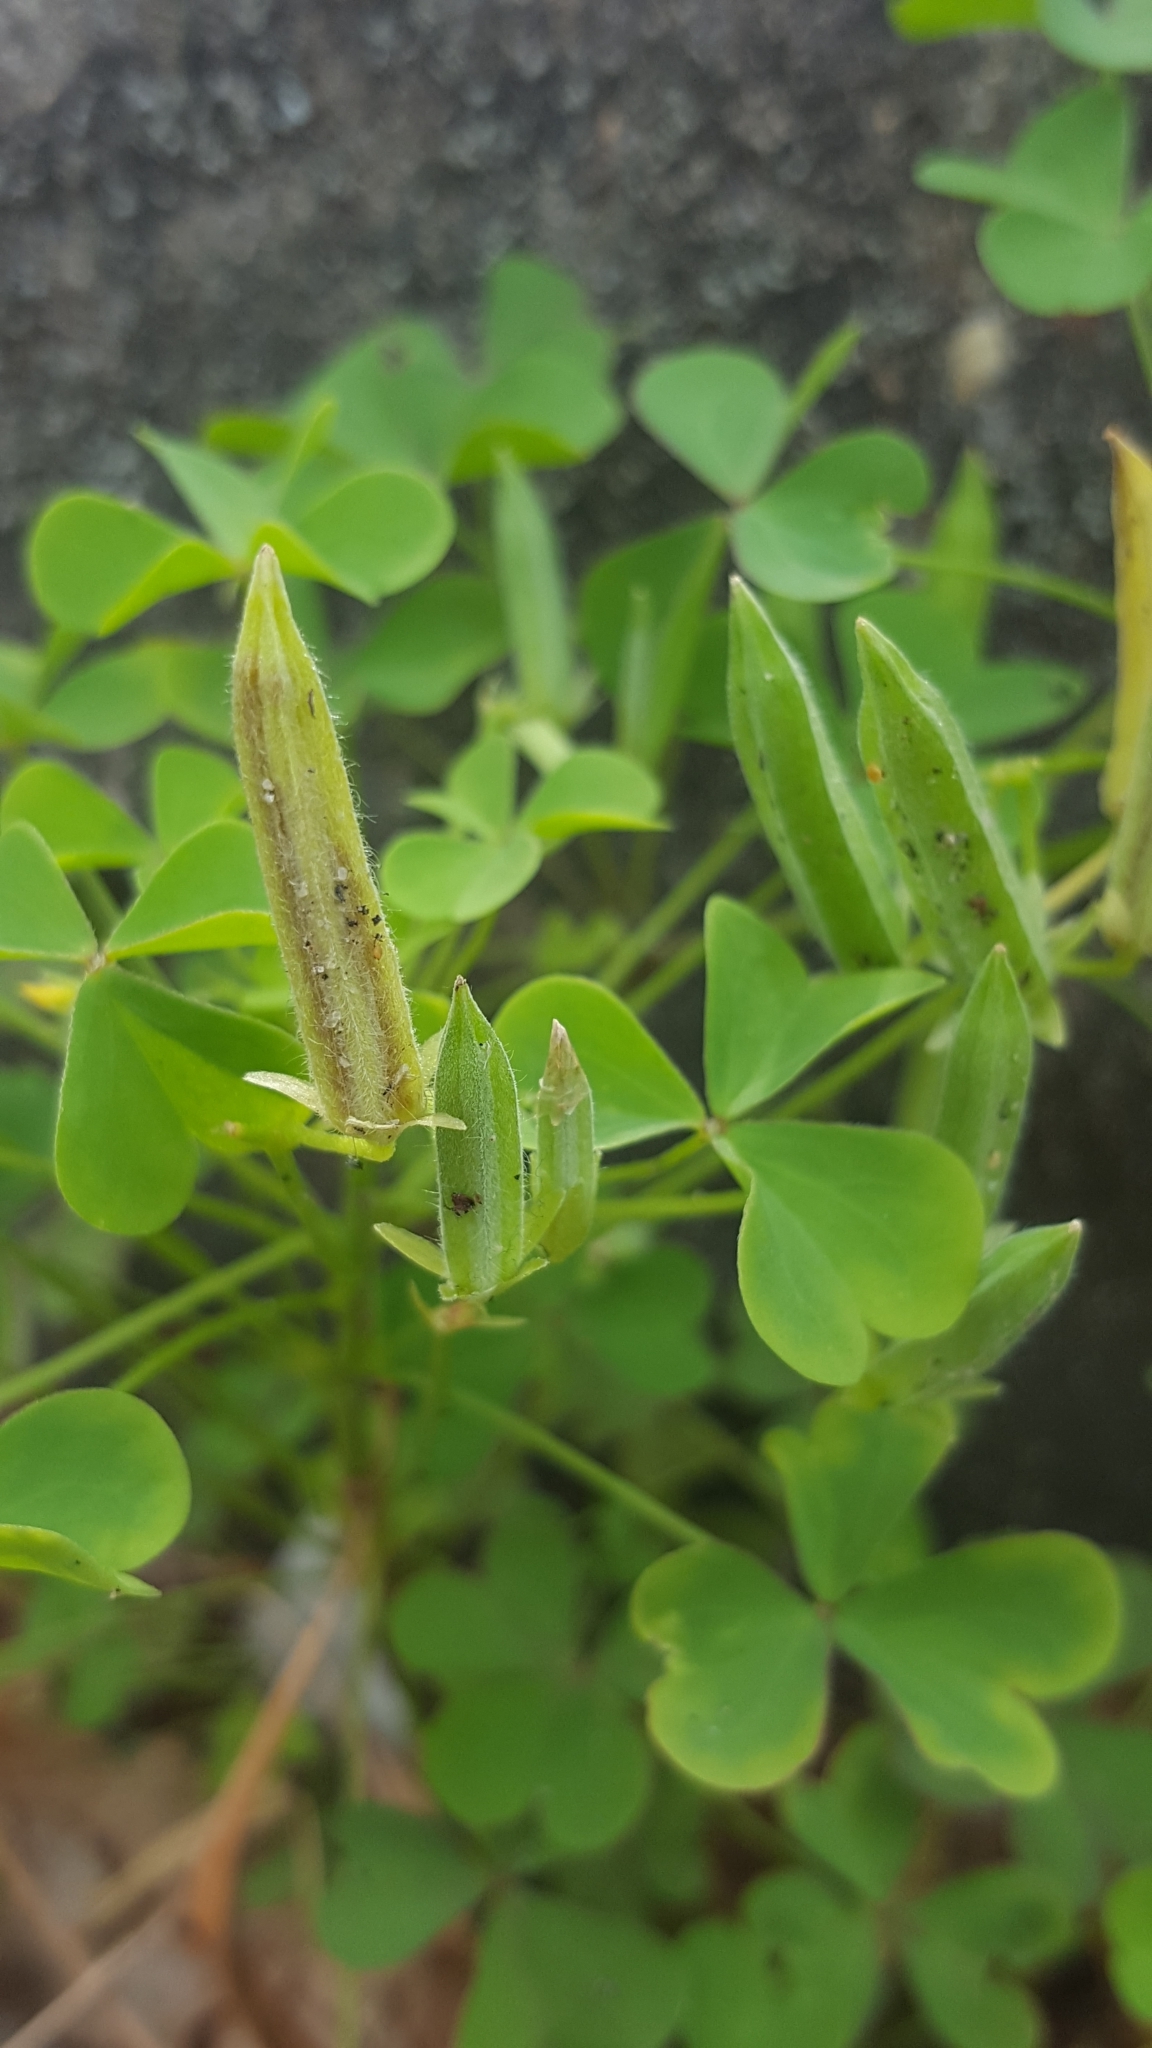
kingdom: Plantae
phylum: Tracheophyta
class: Magnoliopsida
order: Oxalidales
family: Oxalidaceae
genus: Oxalis
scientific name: Oxalis dillenii
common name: Sussex yellow-sorrel
